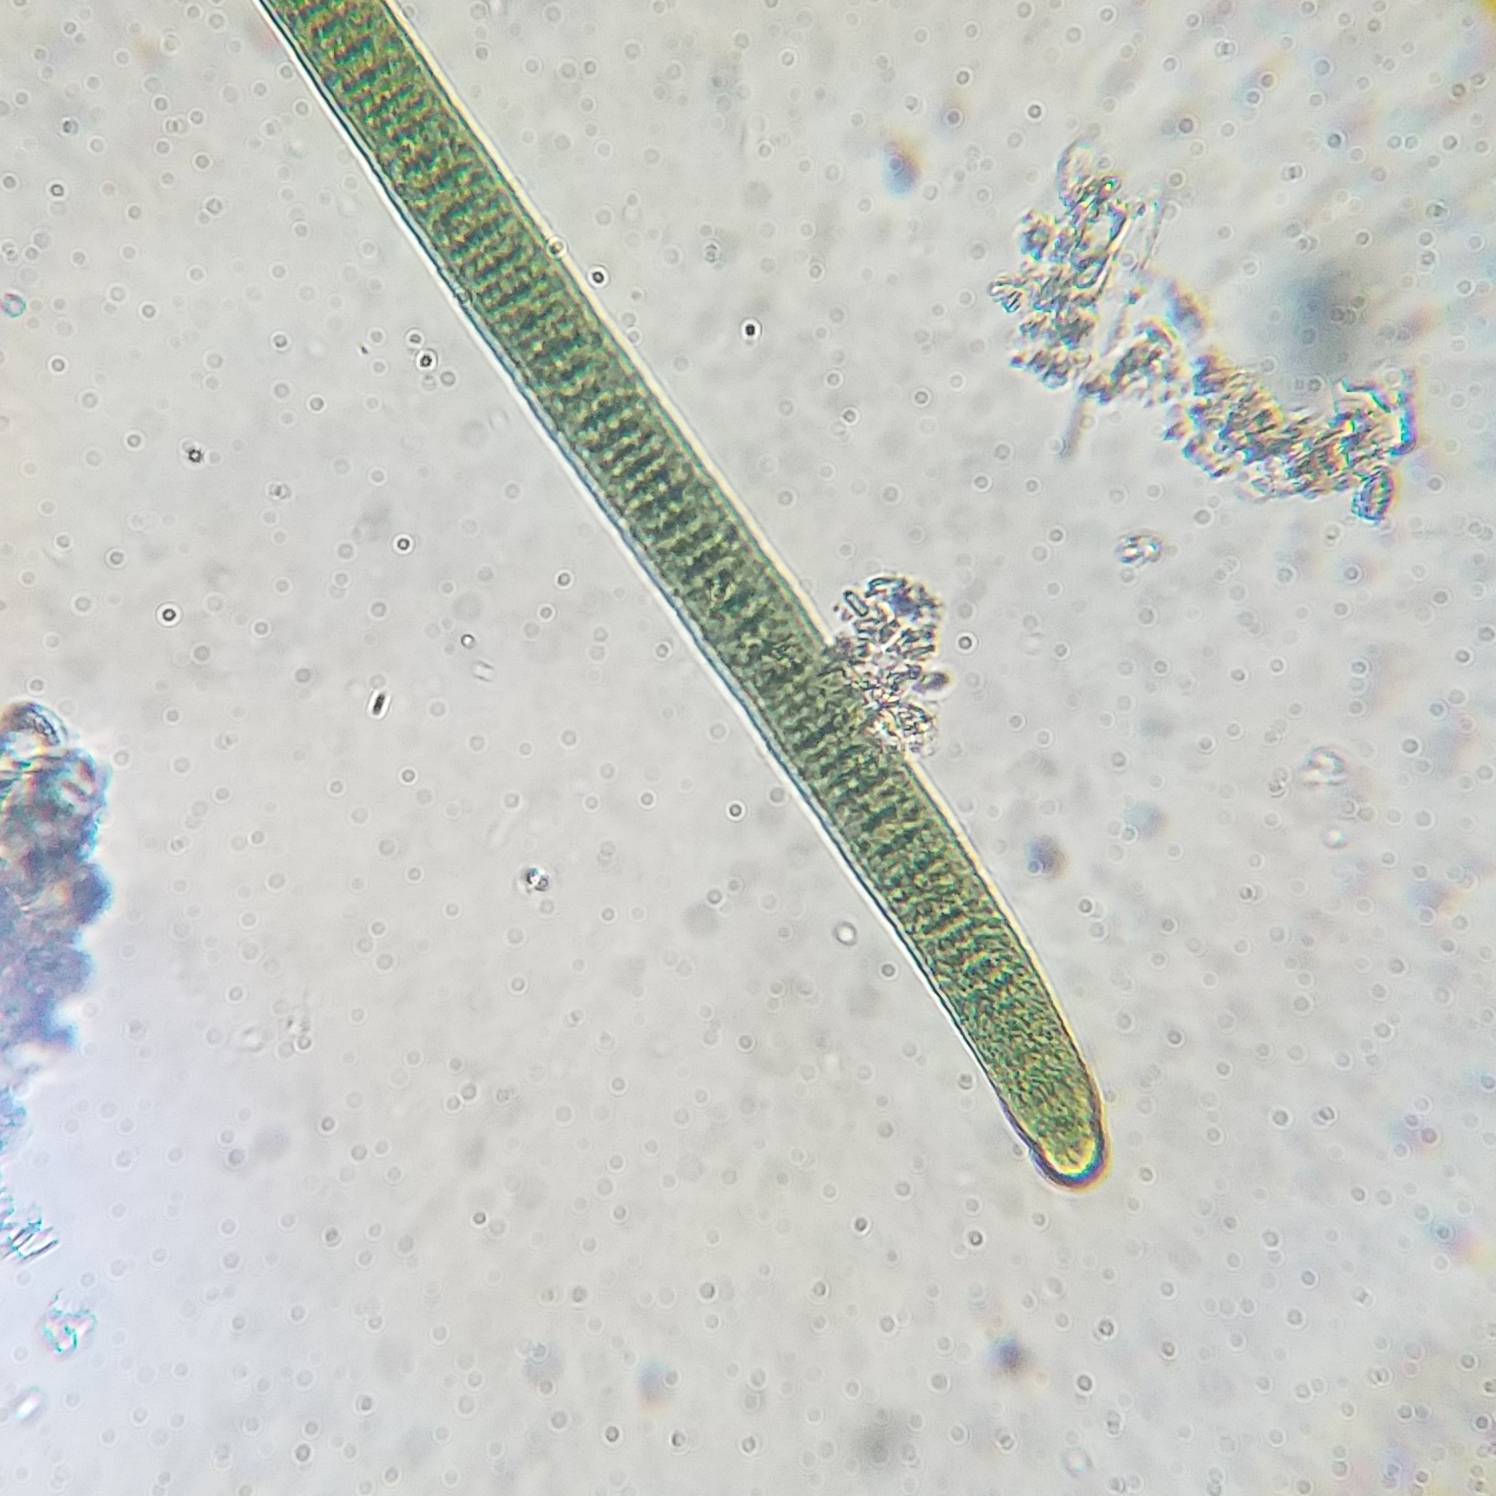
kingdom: Bacteria
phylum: Cyanobacteria
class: Cyanobacteriia
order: Cyanobacteriales
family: Oscillatoriaceae
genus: Oscillatoria
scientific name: Oscillatoria
